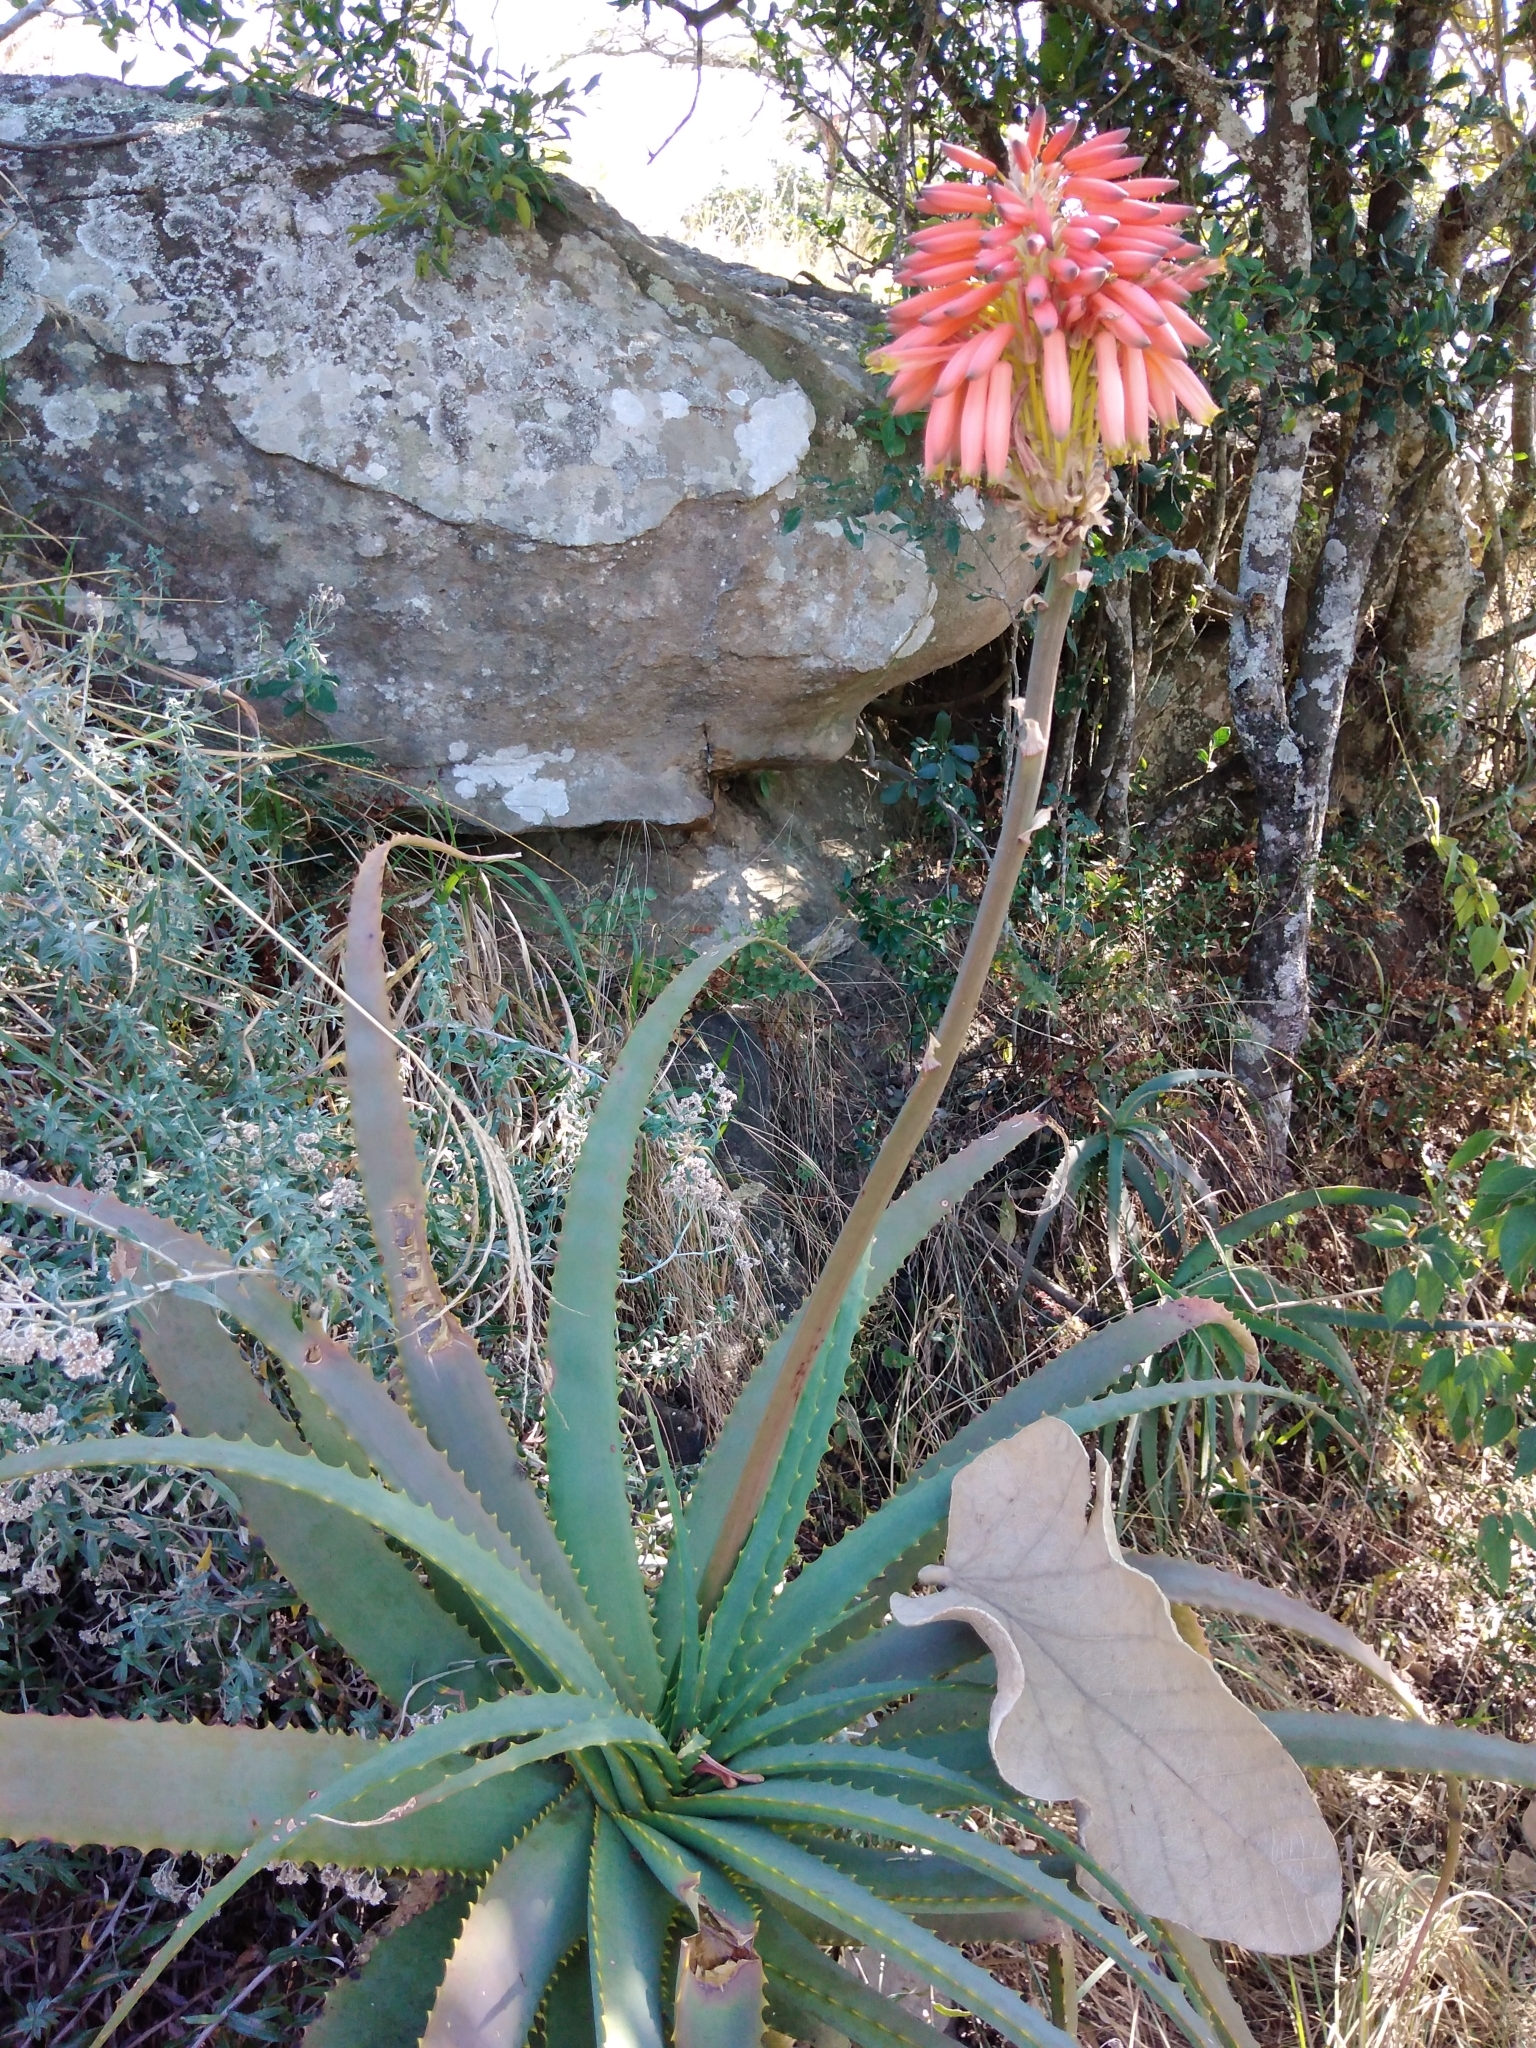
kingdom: Plantae
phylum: Tracheophyta
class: Liliopsida
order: Asparagales
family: Asphodelaceae
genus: Aloe
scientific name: Aloe arborescens
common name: Candelabra aloe
